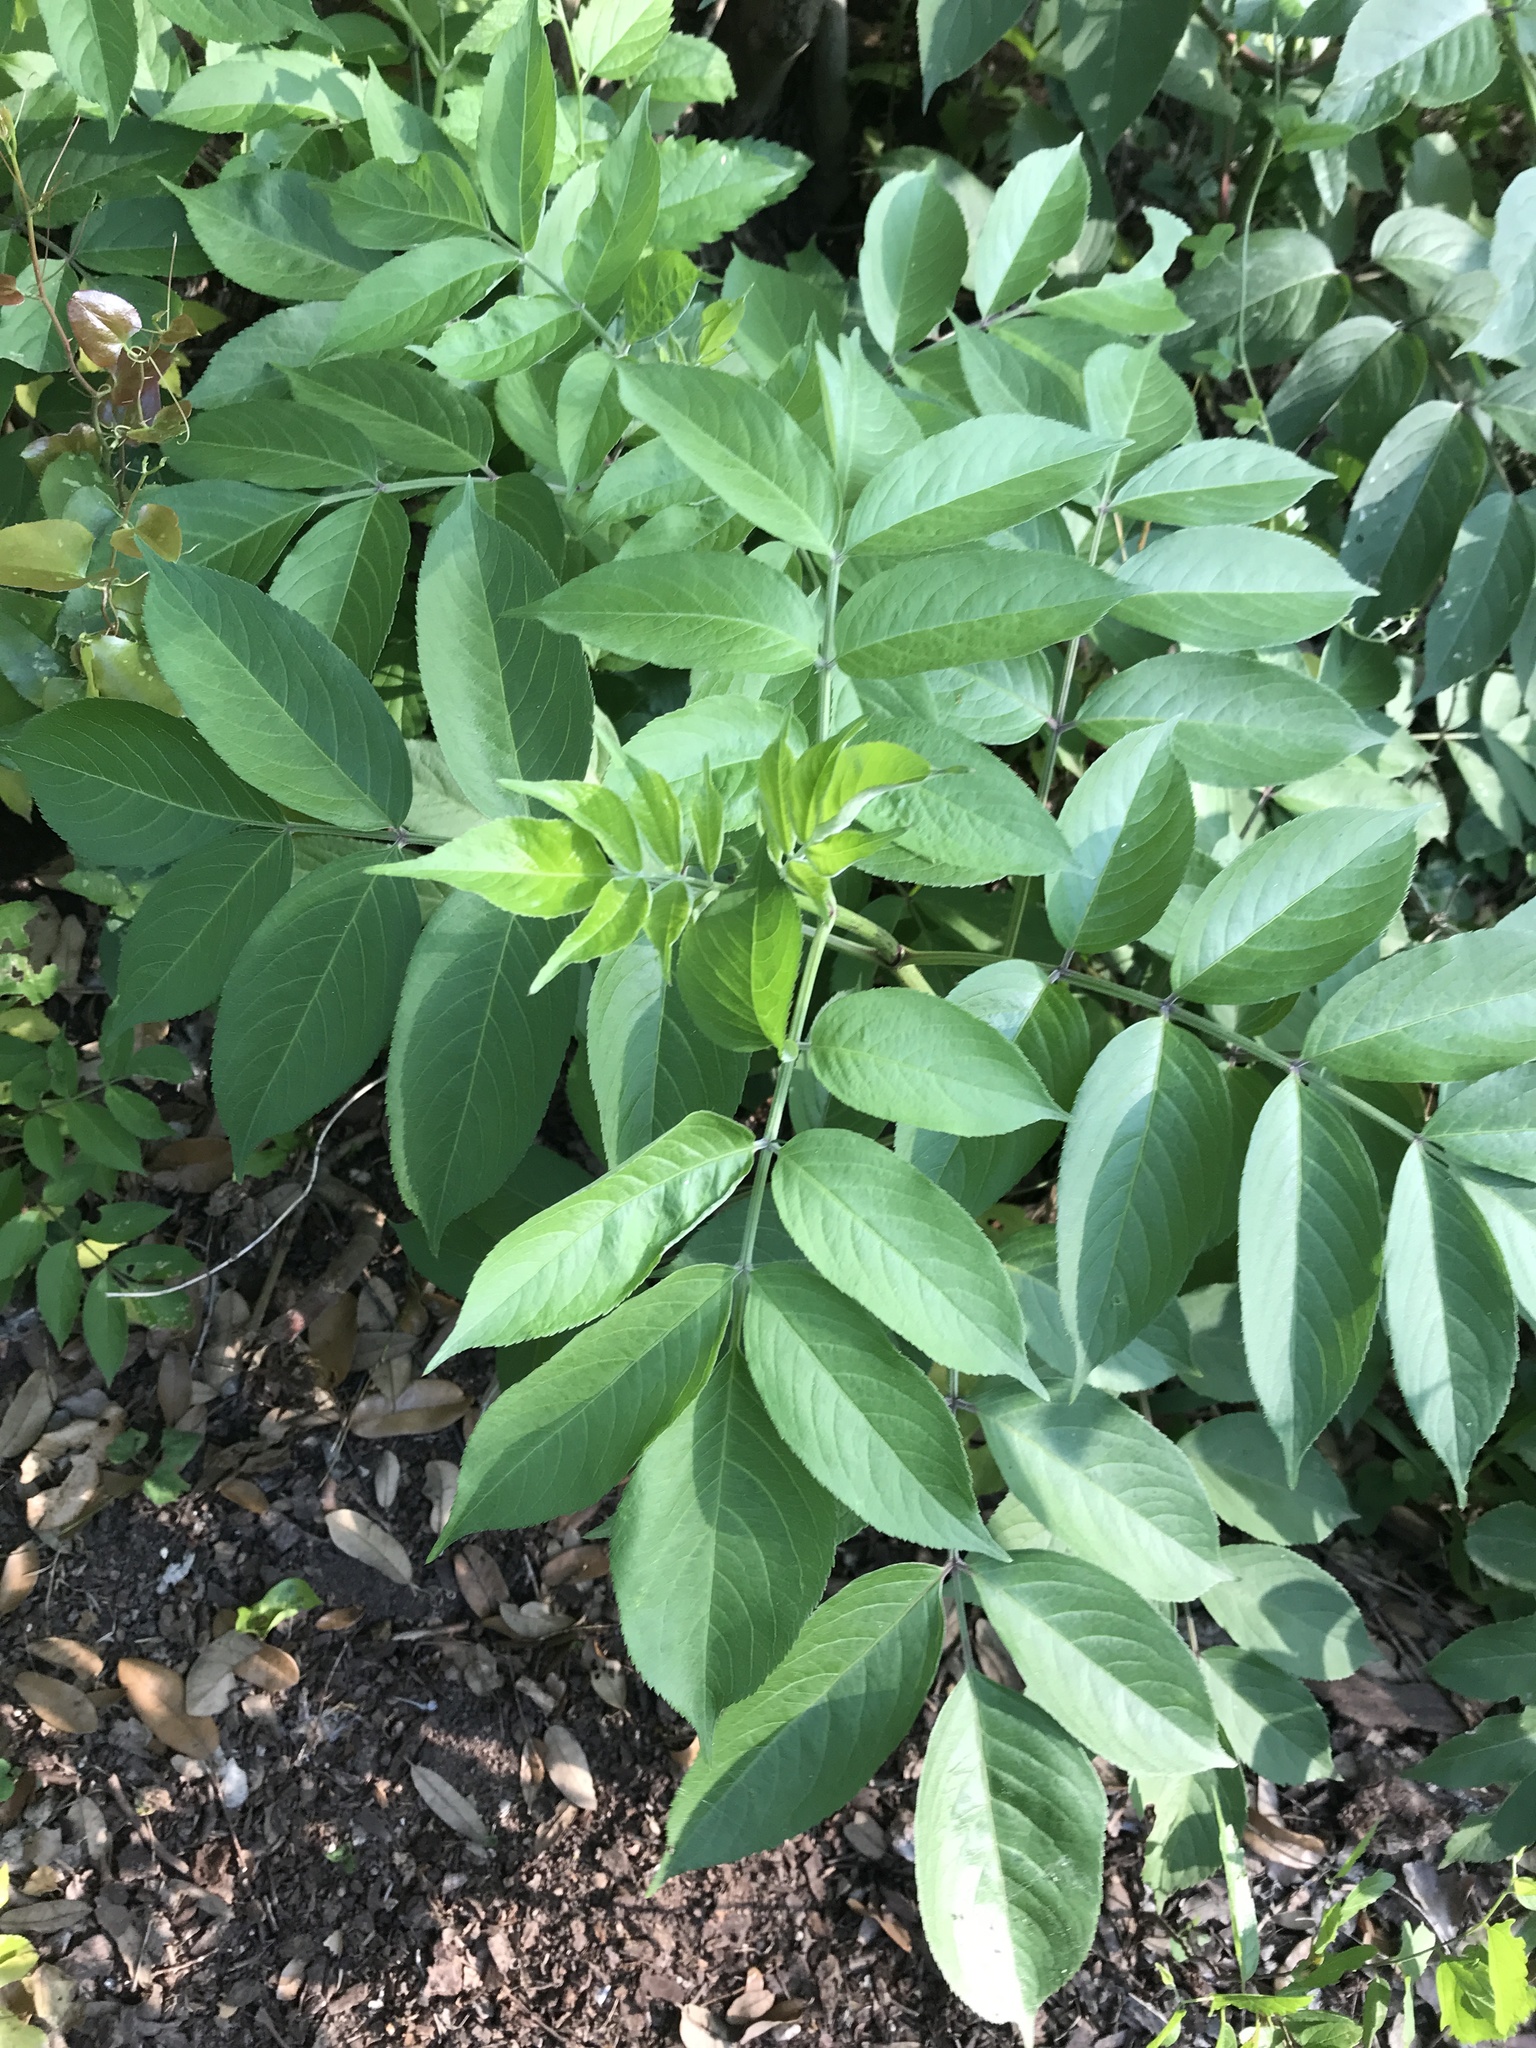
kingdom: Plantae
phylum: Tracheophyta
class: Magnoliopsida
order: Dipsacales
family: Viburnaceae
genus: Sambucus
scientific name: Sambucus canadensis
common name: American elder
